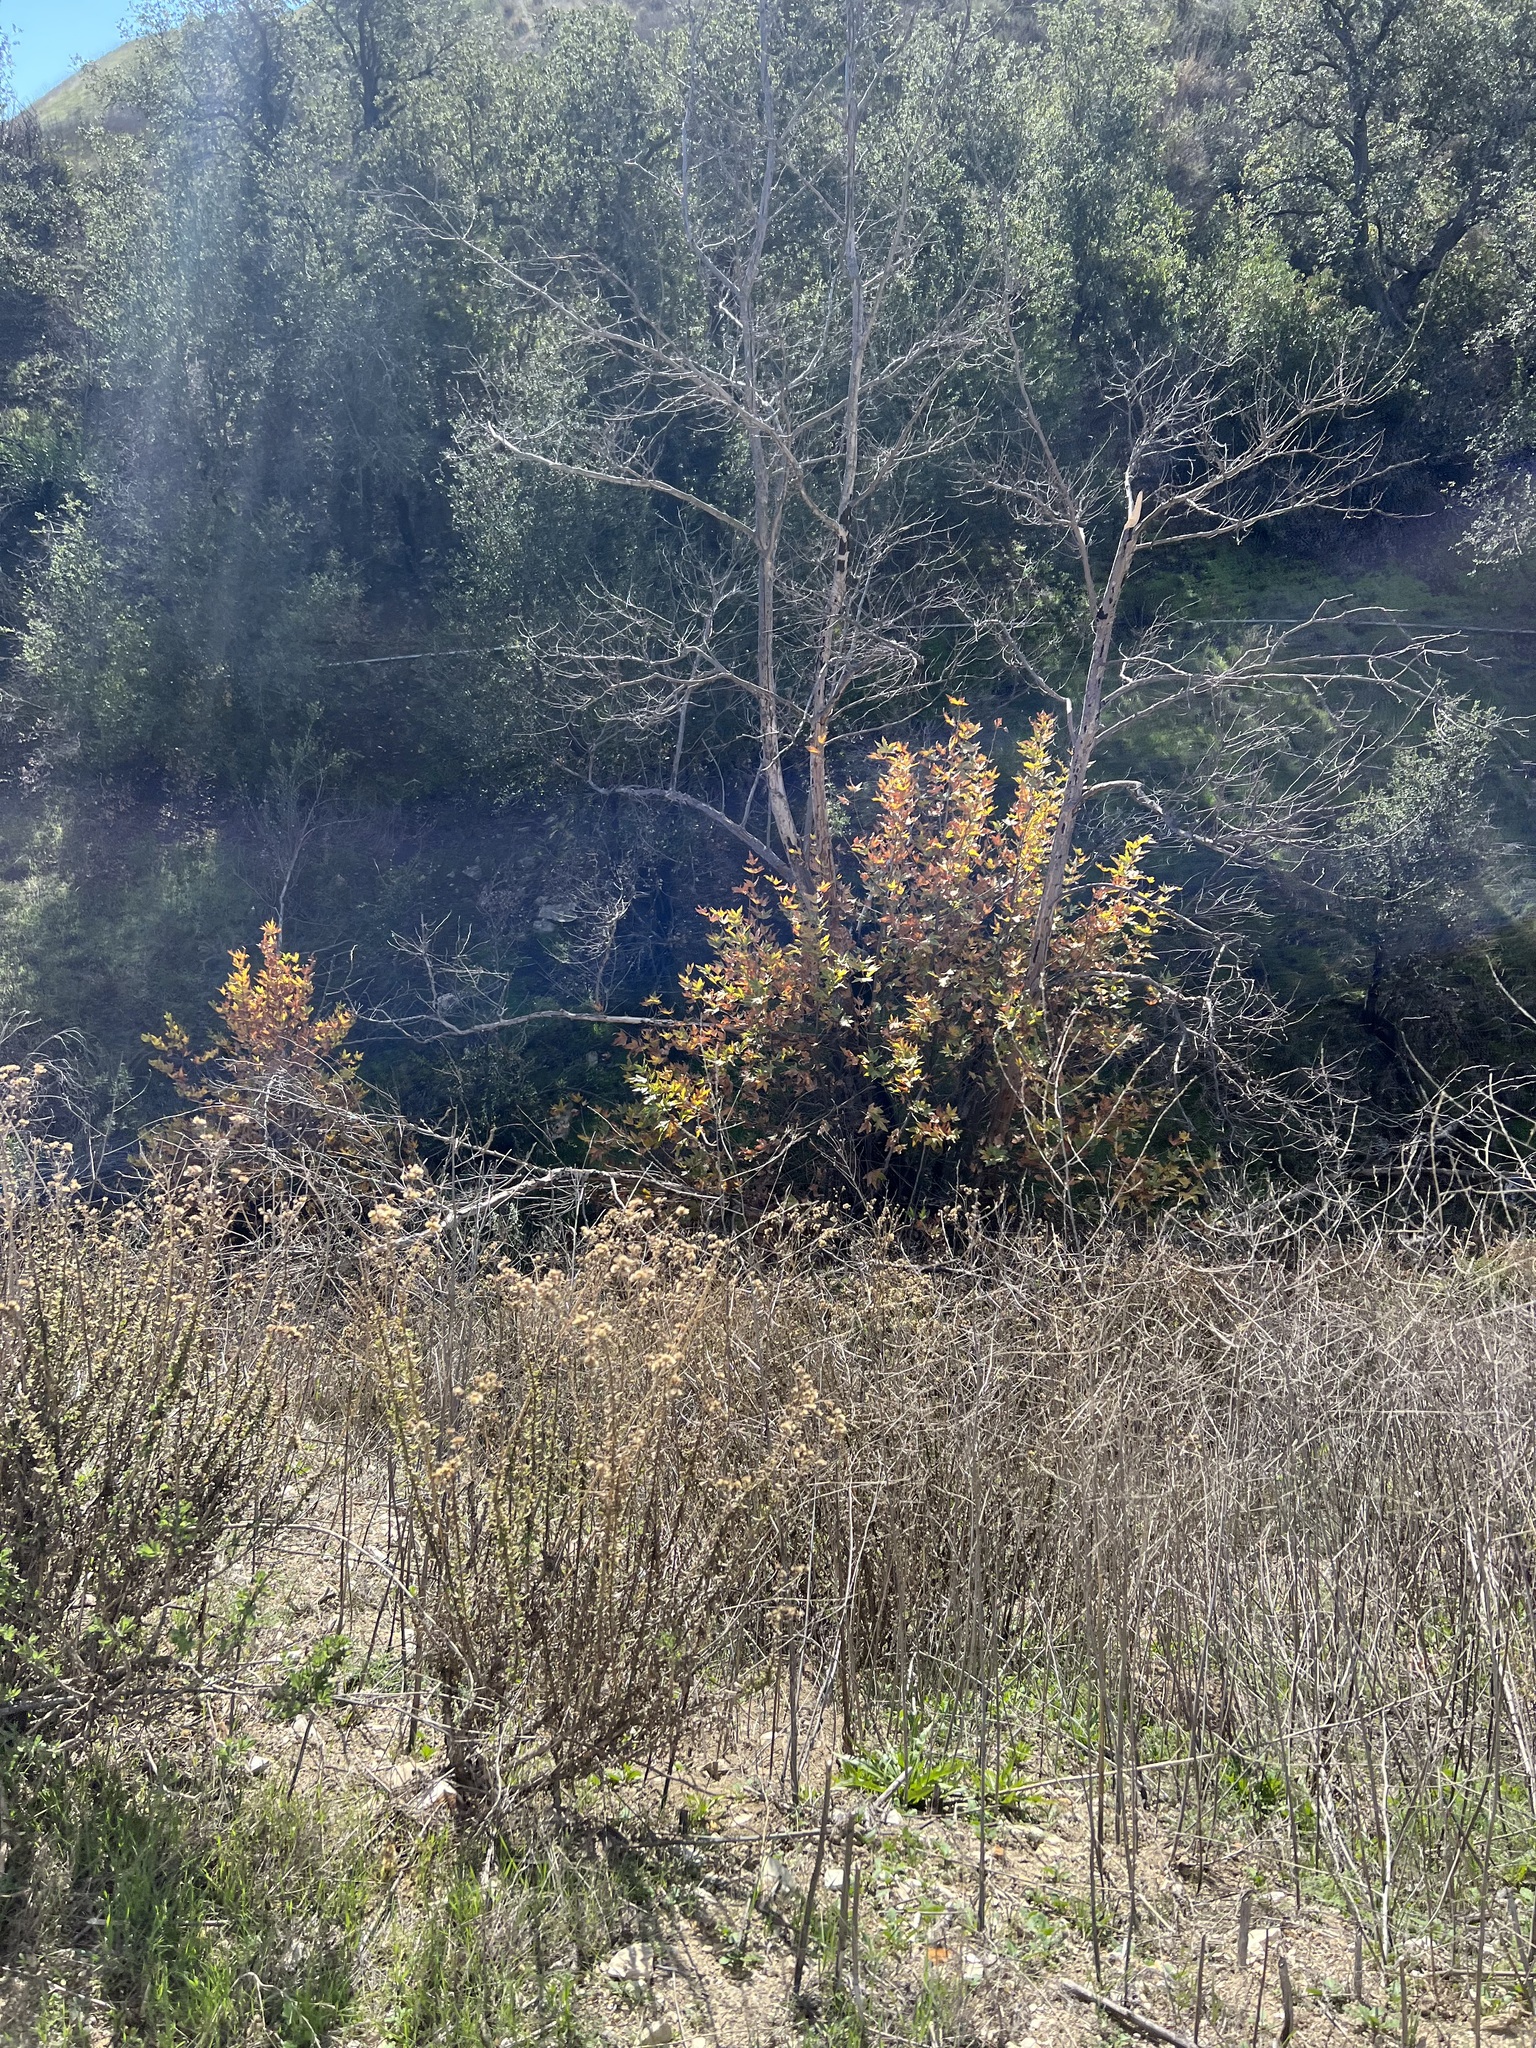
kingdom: Plantae
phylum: Tracheophyta
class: Magnoliopsida
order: Proteales
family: Platanaceae
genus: Platanus
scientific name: Platanus racemosa
